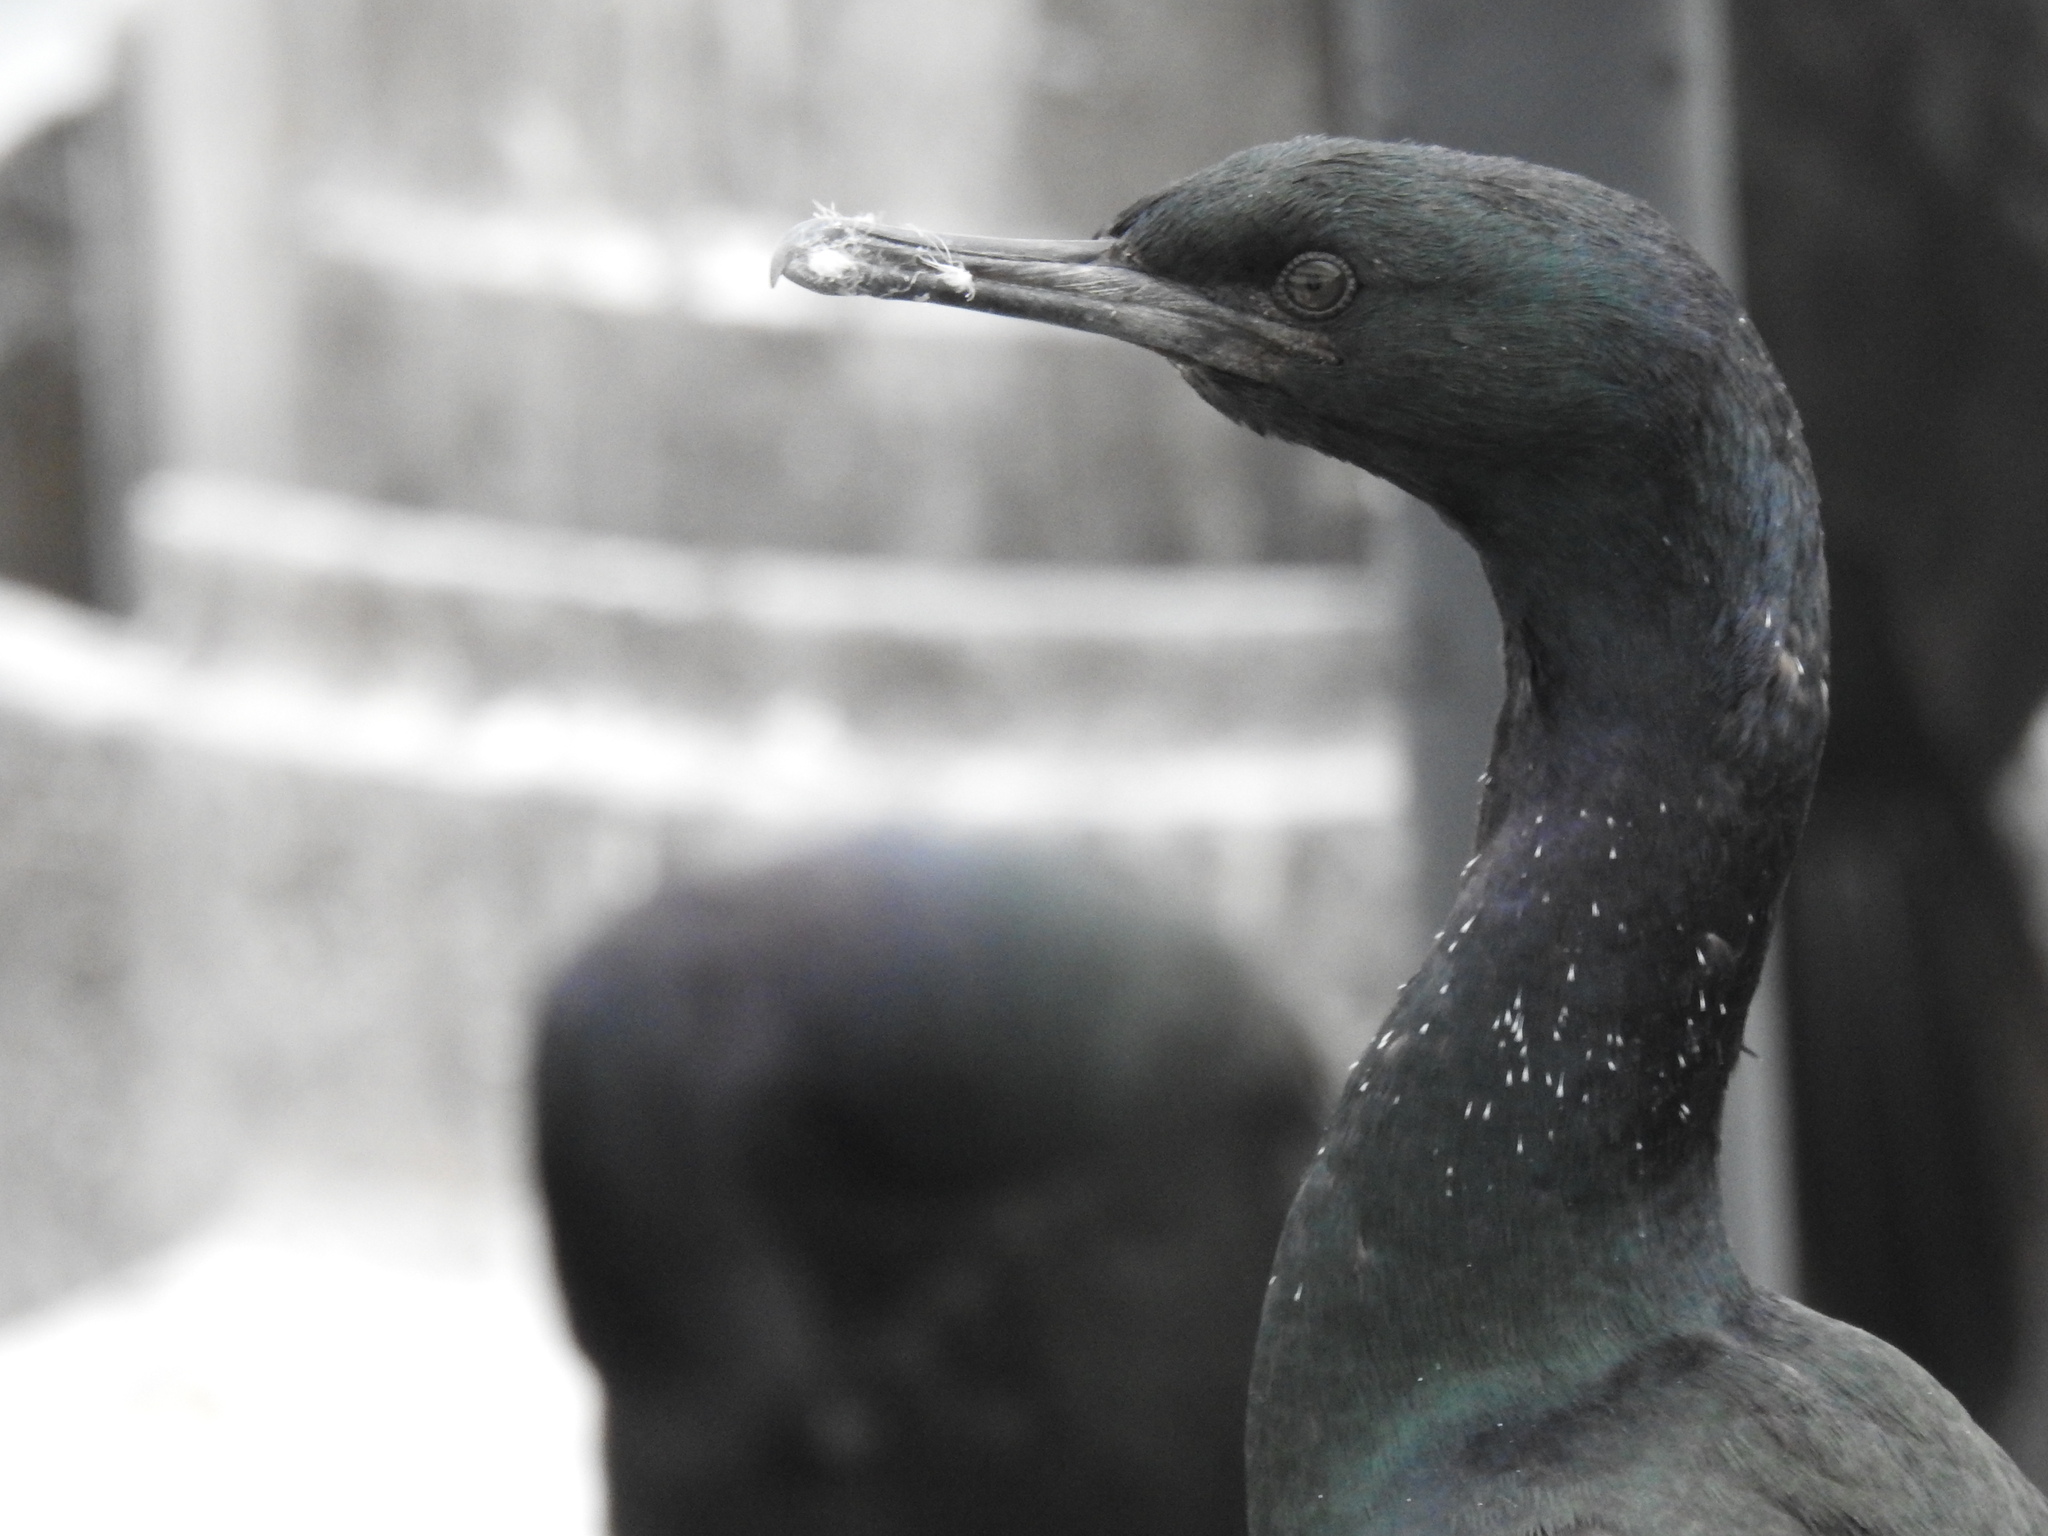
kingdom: Animalia
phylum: Chordata
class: Aves
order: Suliformes
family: Phalacrocoracidae
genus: Phalacrocorax
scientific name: Phalacrocorax pelagicus
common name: Pelagic cormorant
